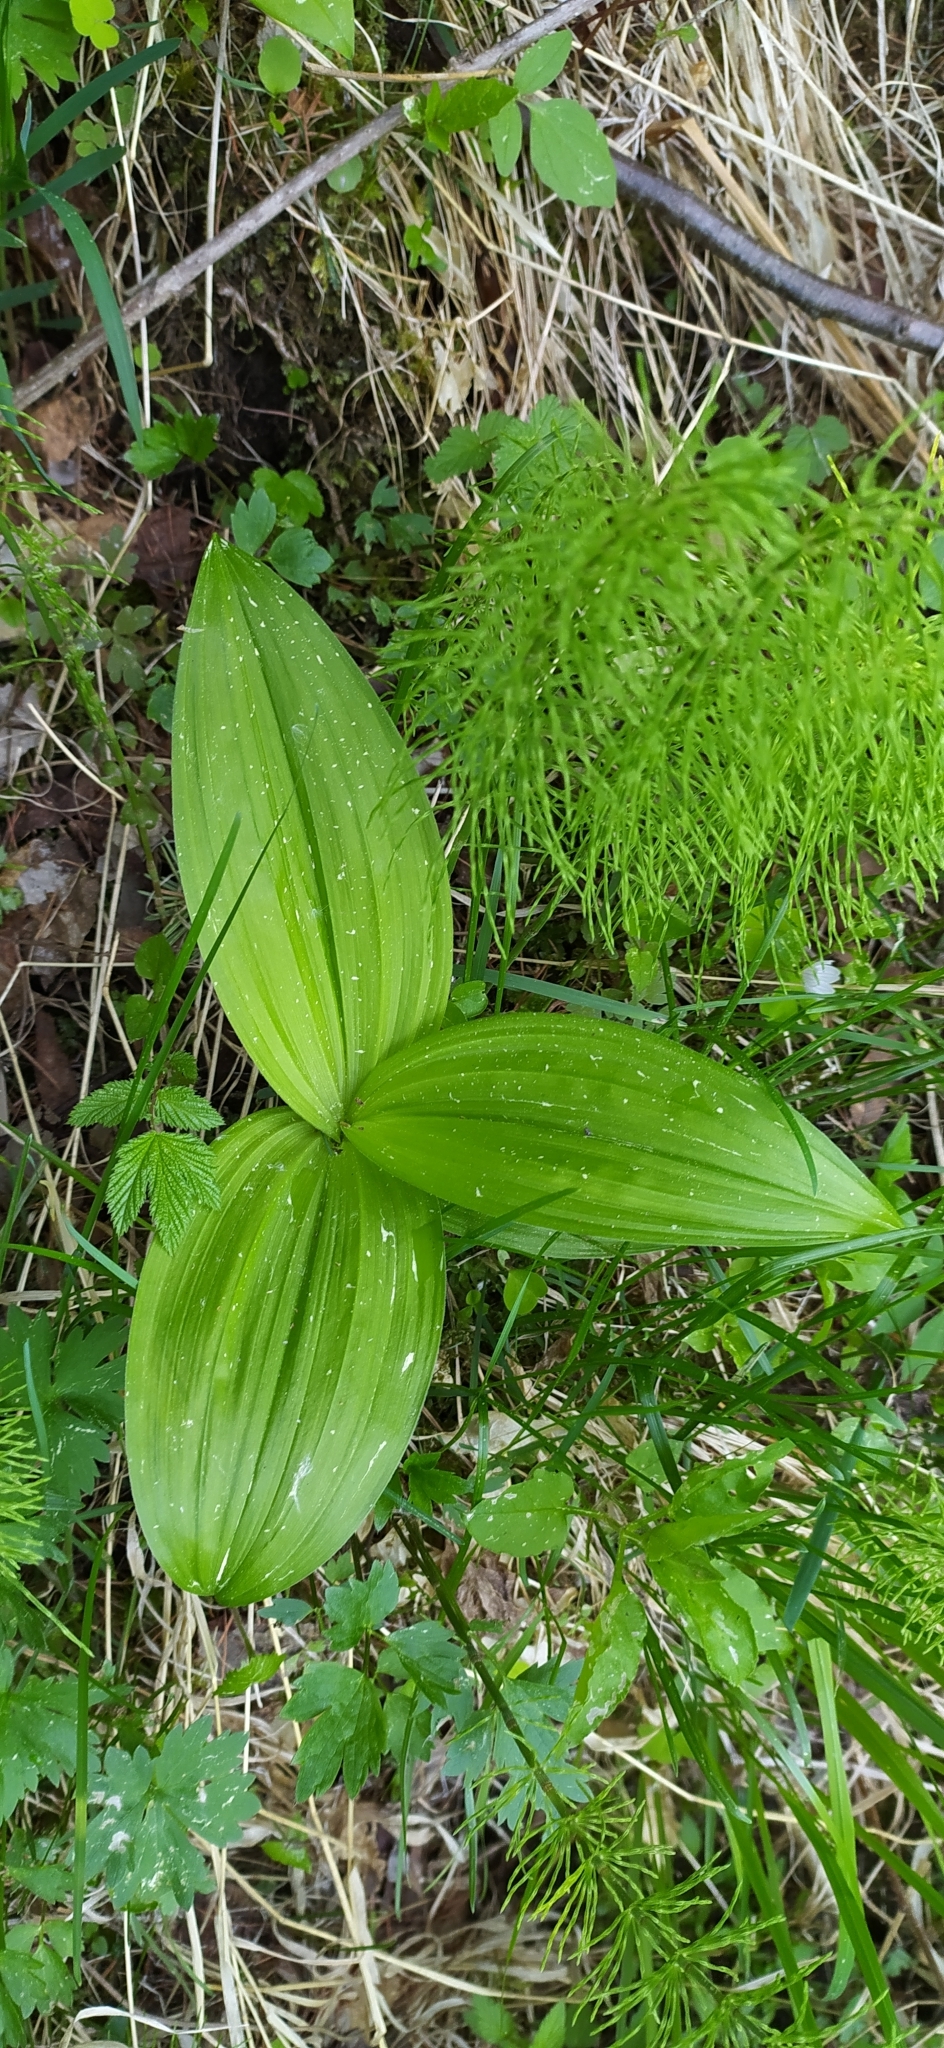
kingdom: Plantae
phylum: Tracheophyta
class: Liliopsida
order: Liliales
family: Melanthiaceae
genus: Veratrum
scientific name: Veratrum lobelianum
